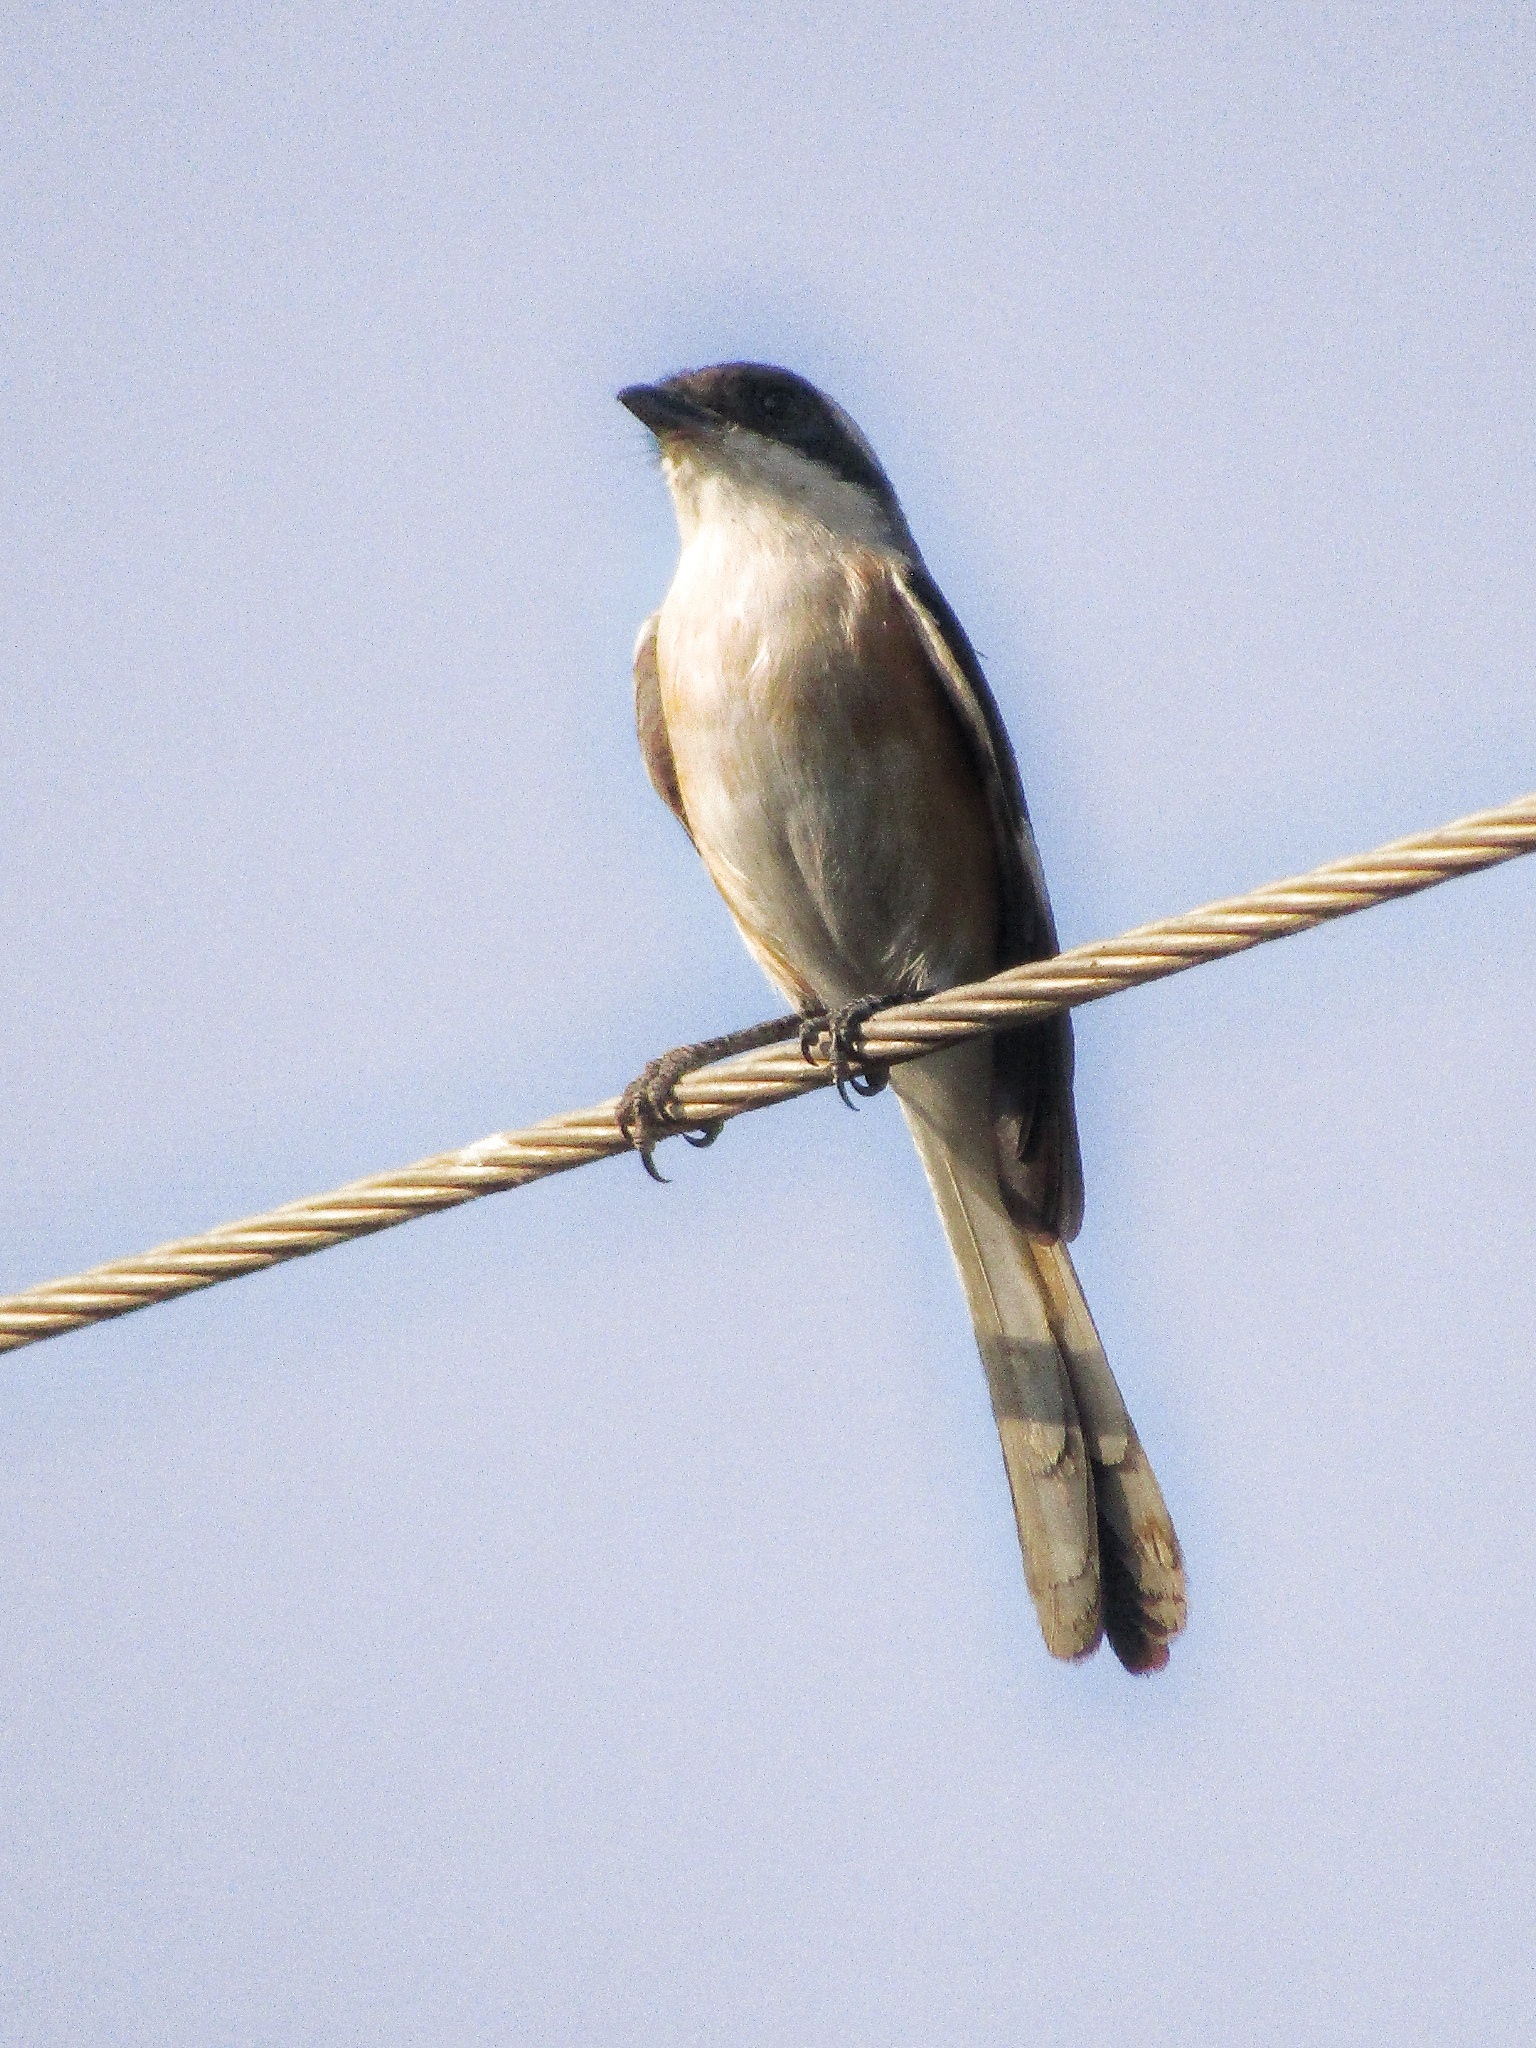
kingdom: Animalia
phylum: Chordata
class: Aves
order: Passeriformes
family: Laniidae
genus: Lanius
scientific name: Lanius vittatus
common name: Bay-backed shrike
